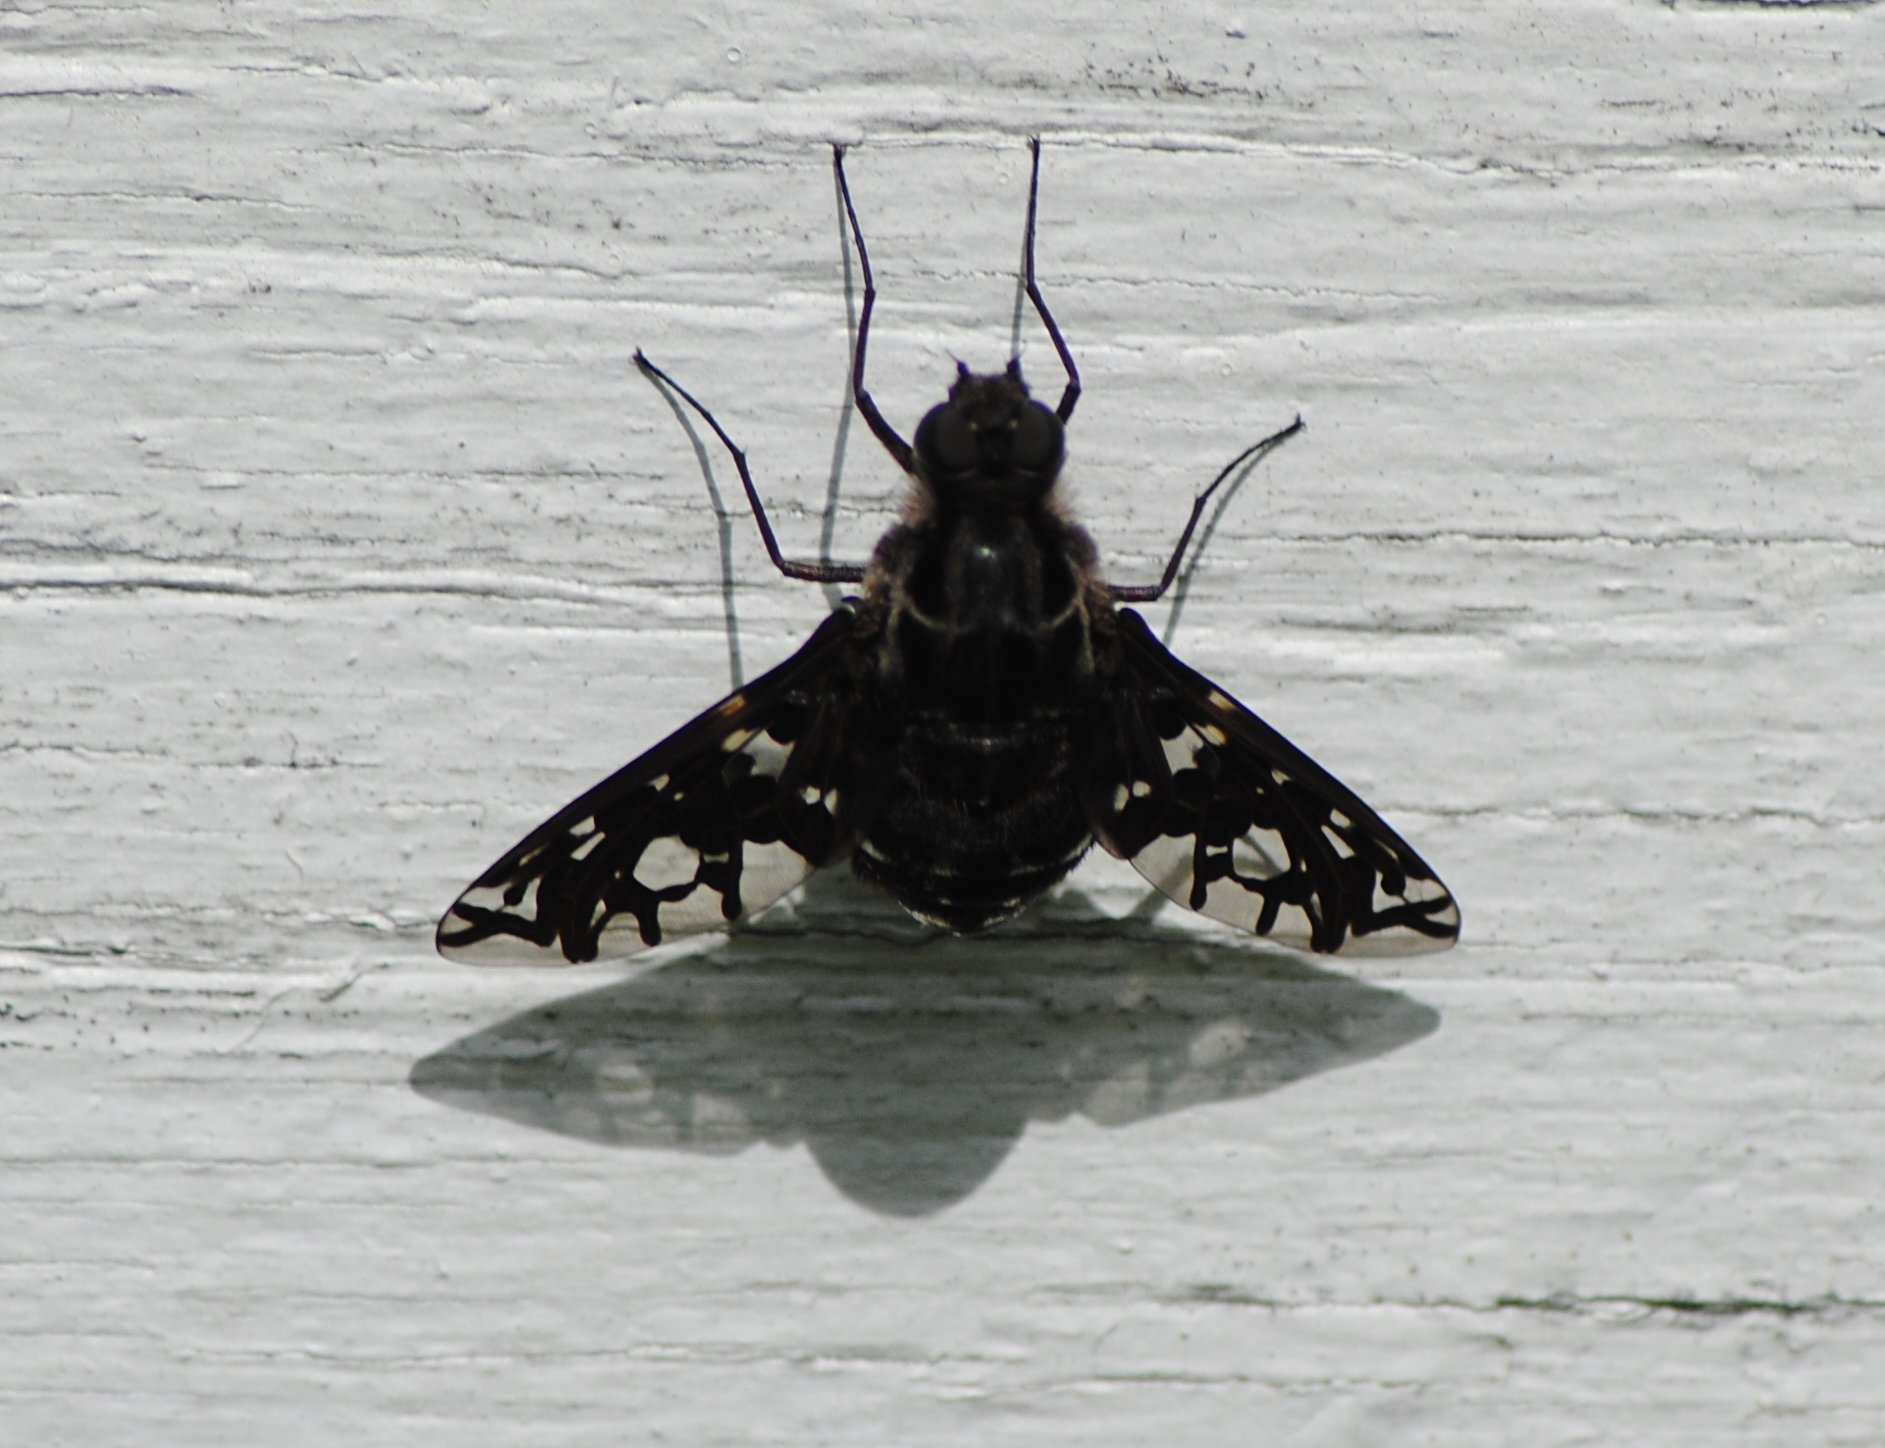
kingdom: Animalia
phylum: Arthropoda
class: Insecta
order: Diptera
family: Bombyliidae
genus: Xenox
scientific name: Xenox tigrinus
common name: Tiger bee fly
